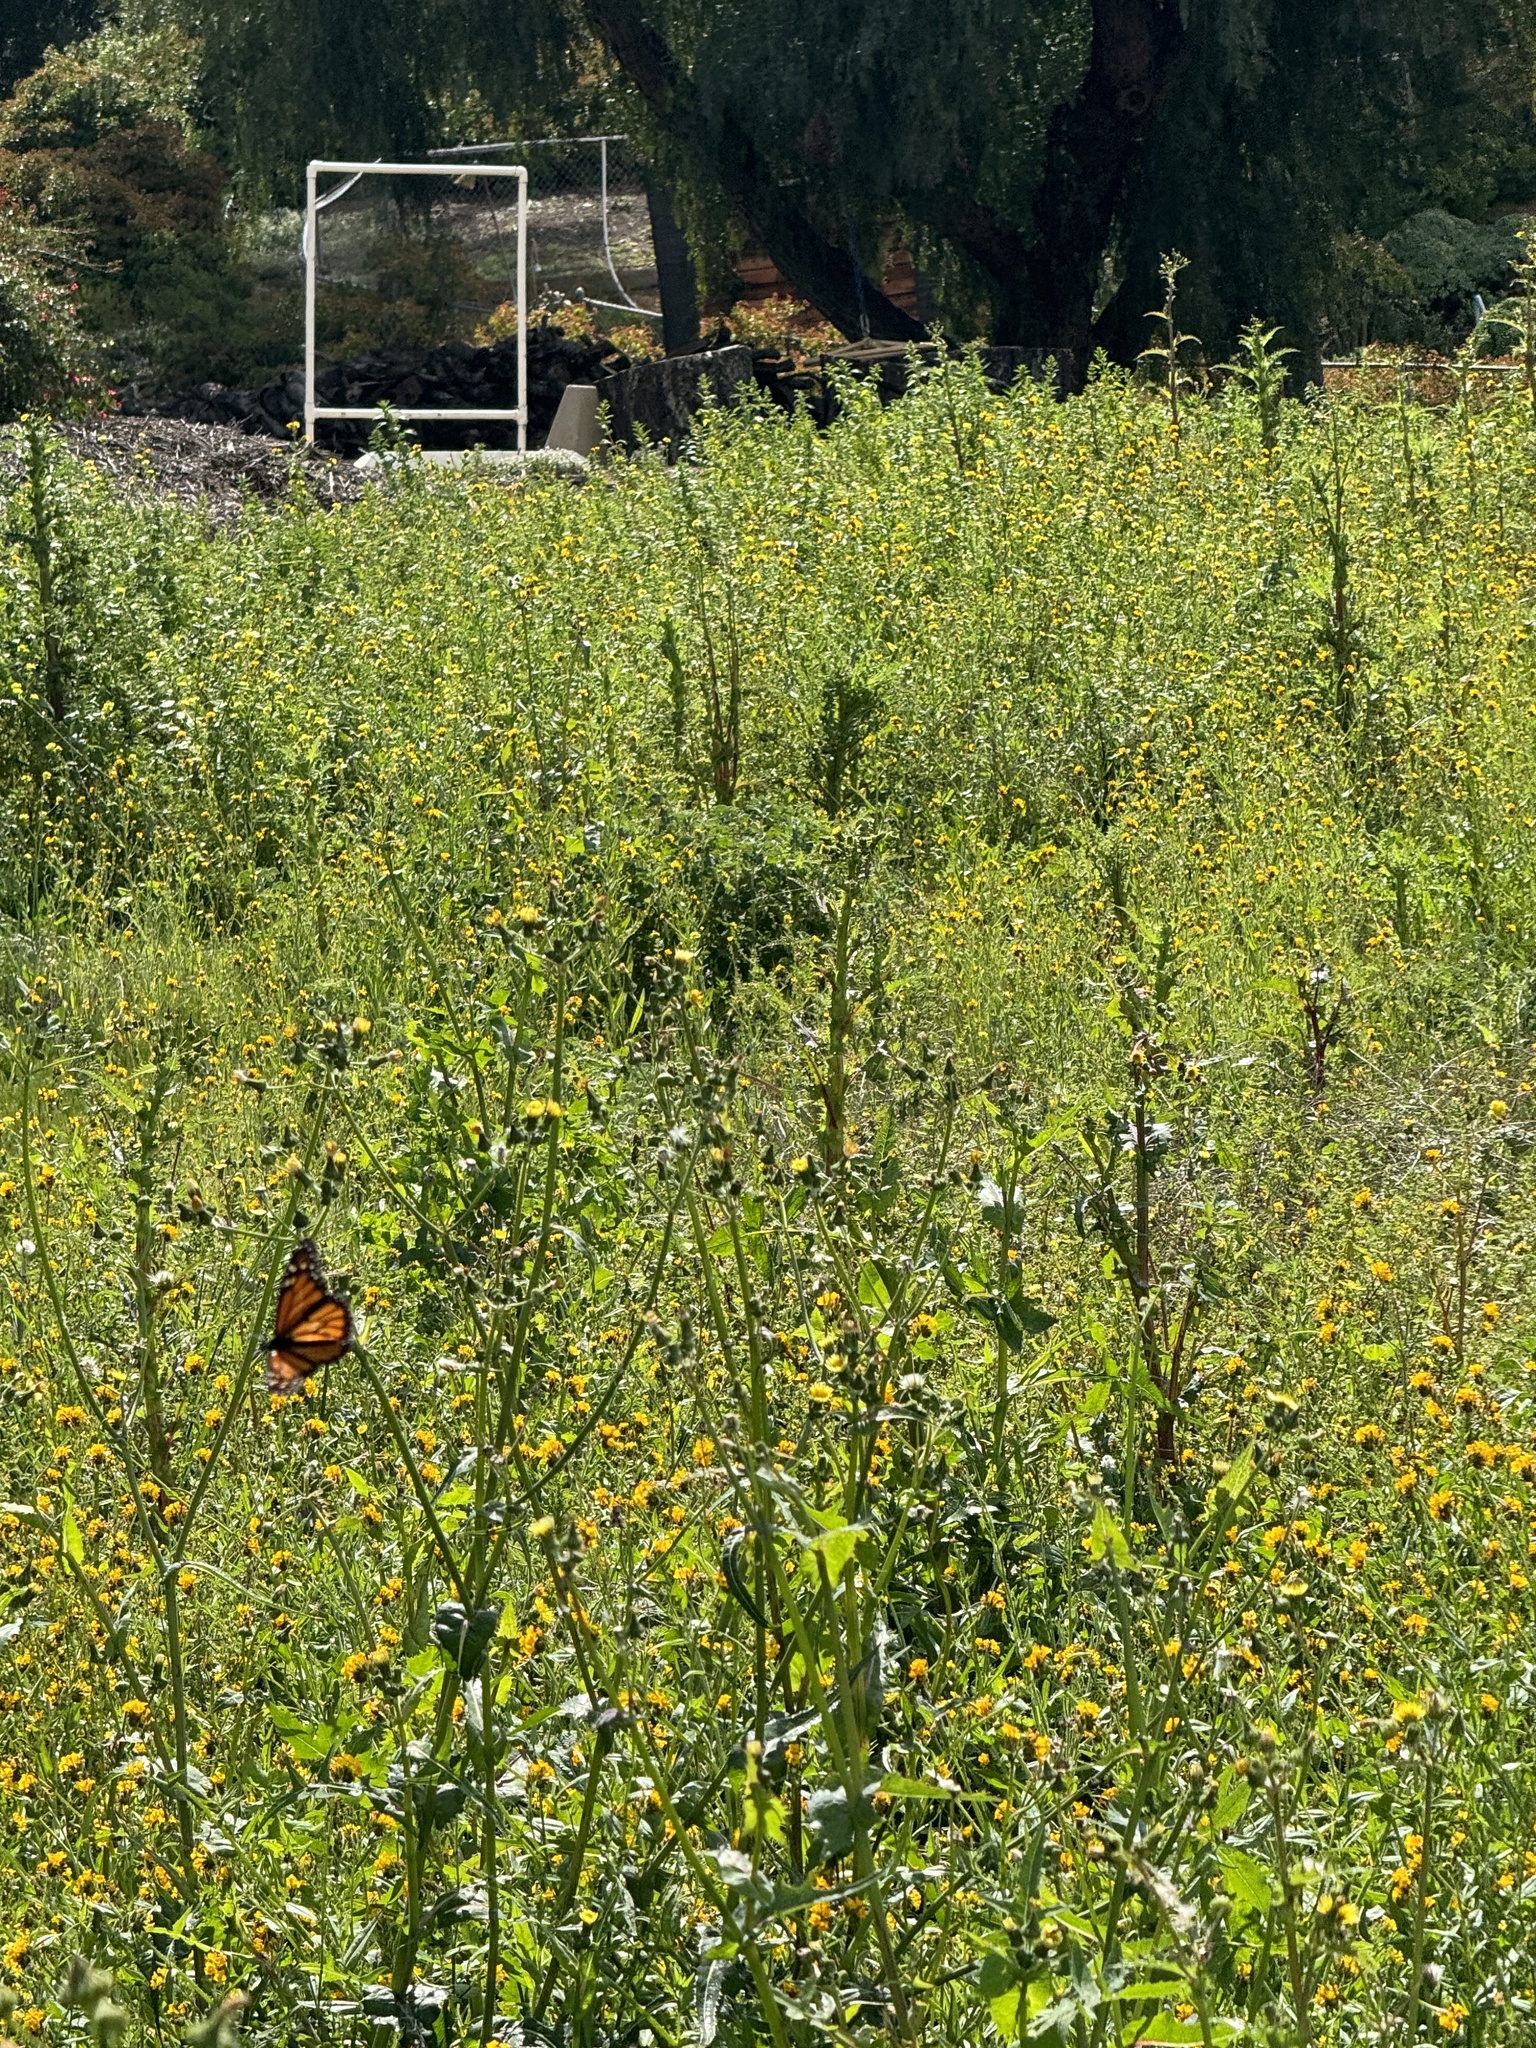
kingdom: Animalia
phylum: Arthropoda
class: Insecta
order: Lepidoptera
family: Nymphalidae
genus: Danaus
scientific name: Danaus plexippus
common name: Monarch
